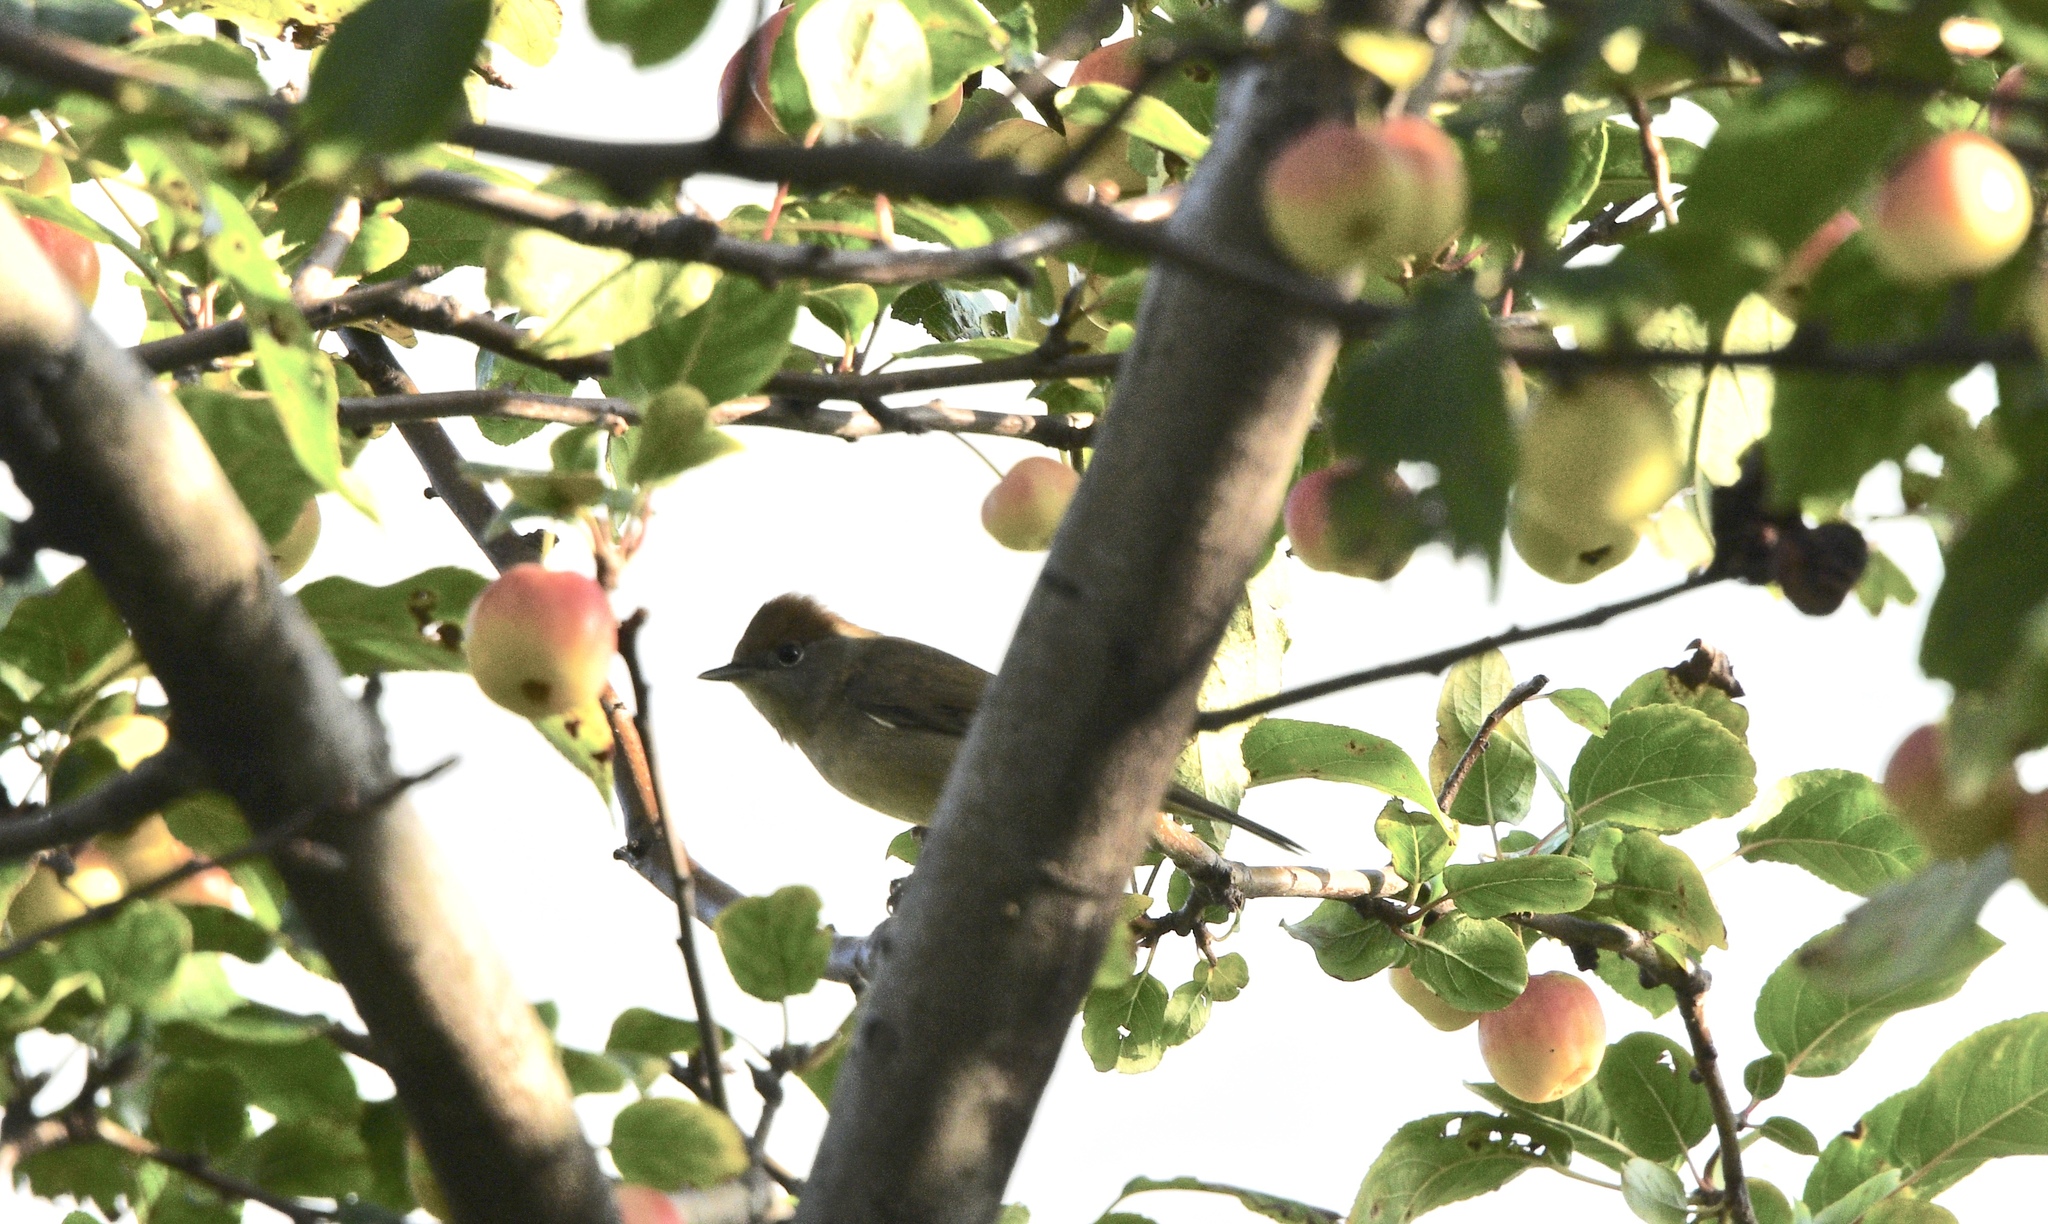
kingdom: Animalia
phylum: Chordata
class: Aves
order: Passeriformes
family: Sylviidae
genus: Sylvia
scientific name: Sylvia atricapilla
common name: Eurasian blackcap
